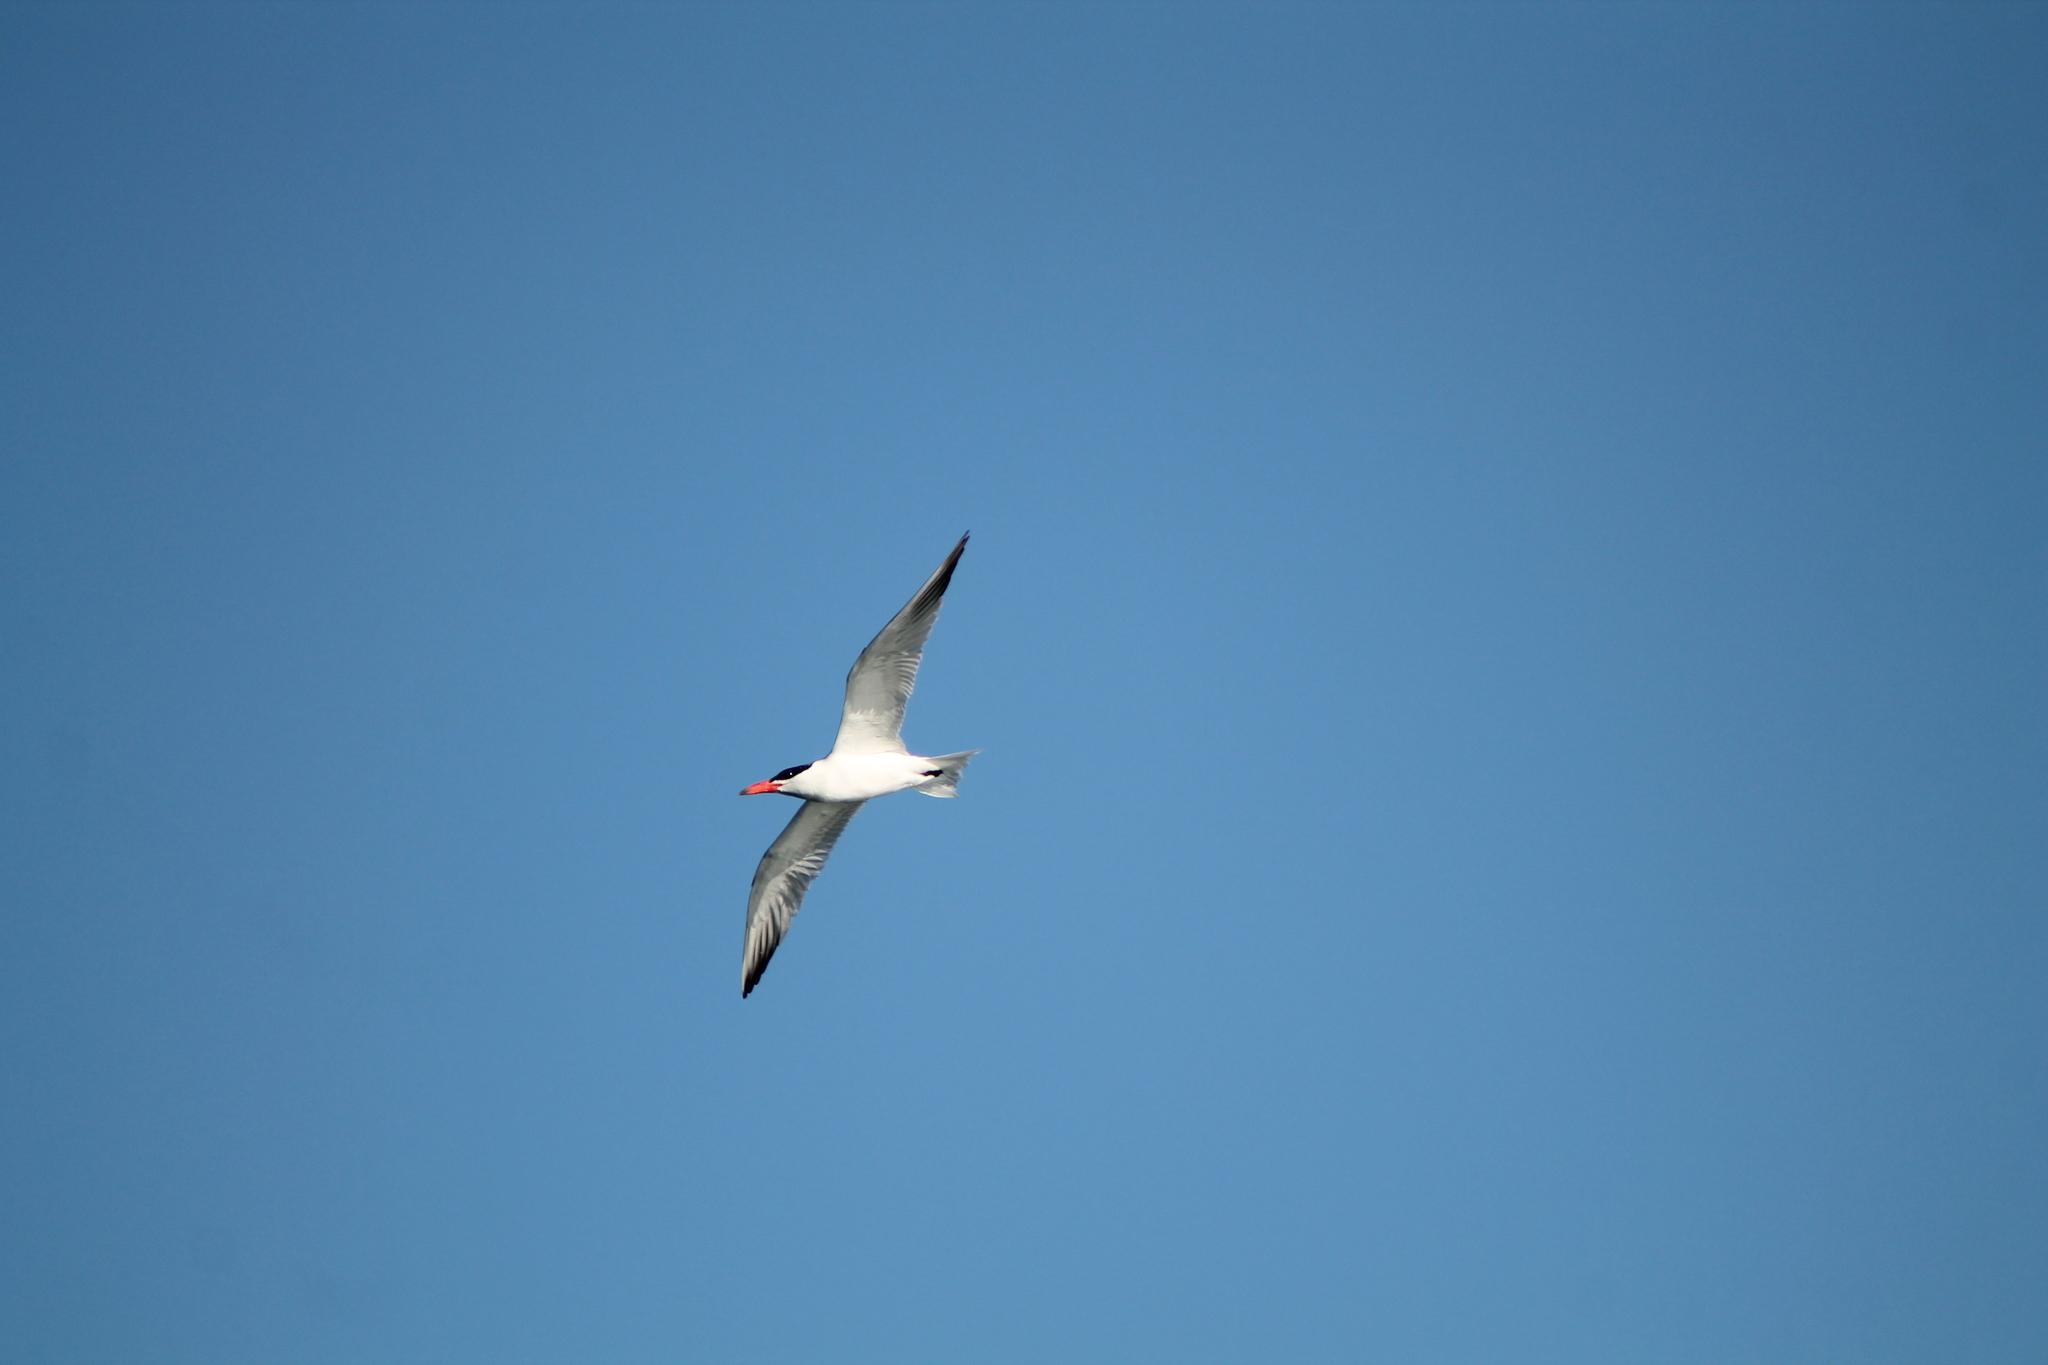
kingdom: Animalia
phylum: Chordata
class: Aves
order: Charadriiformes
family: Laridae
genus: Hydroprogne
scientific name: Hydroprogne caspia
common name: Caspian tern
